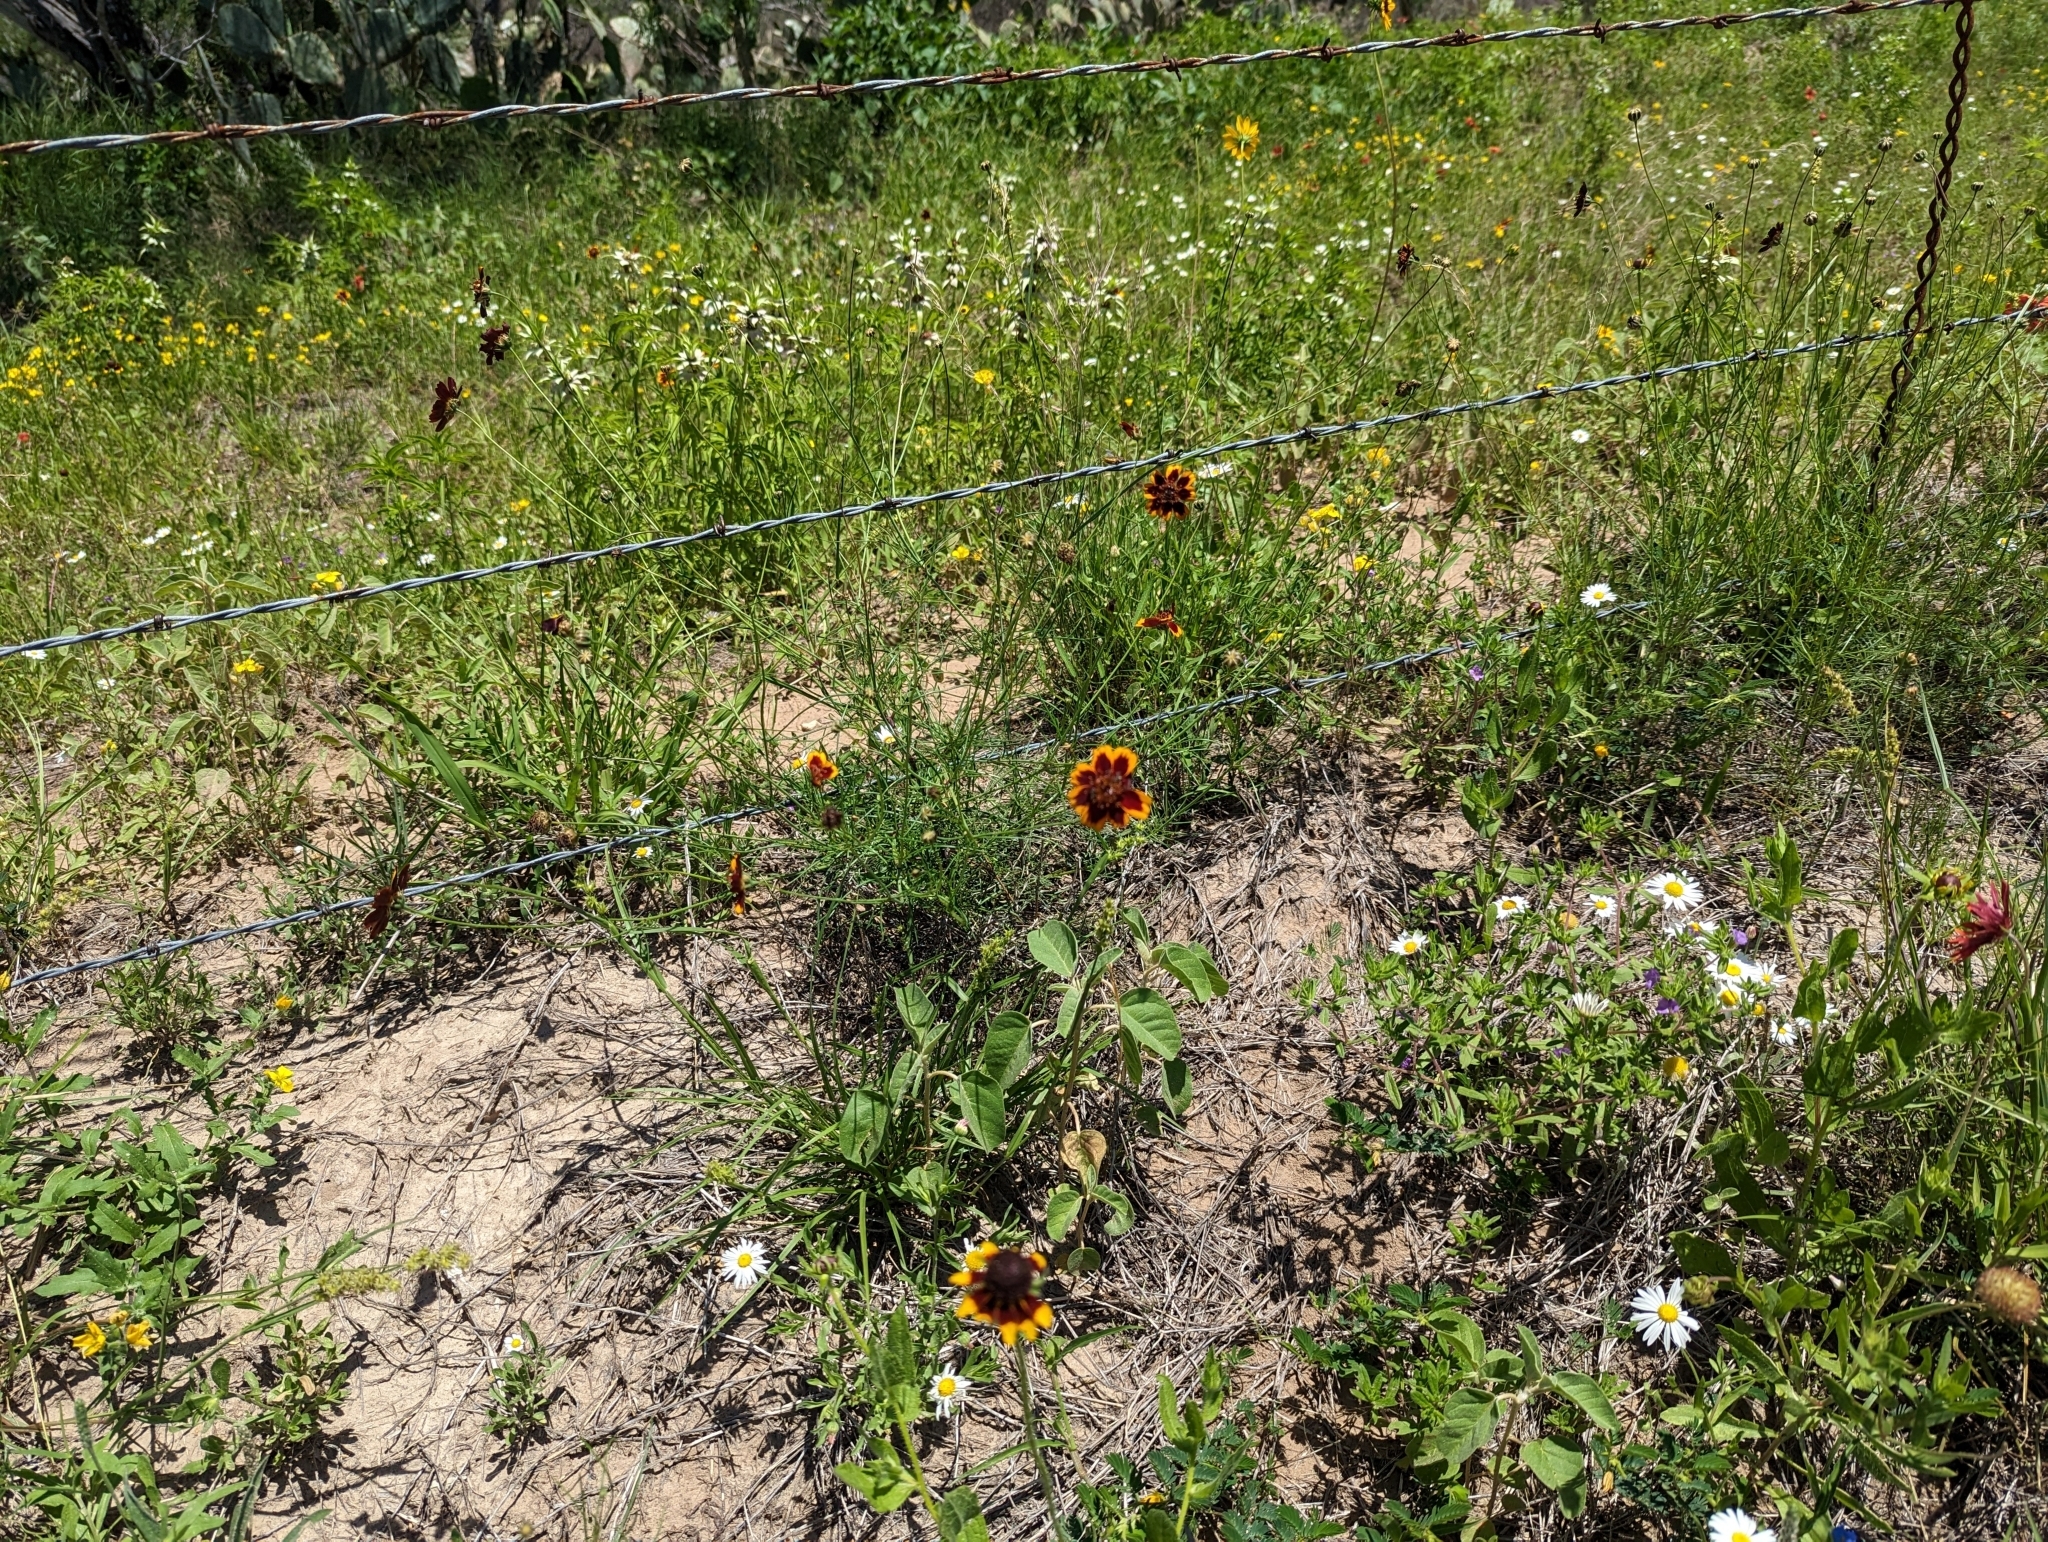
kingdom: Plantae
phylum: Tracheophyta
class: Magnoliopsida
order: Asterales
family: Asteraceae
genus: Thelesperma
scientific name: Thelesperma burridgeanum
